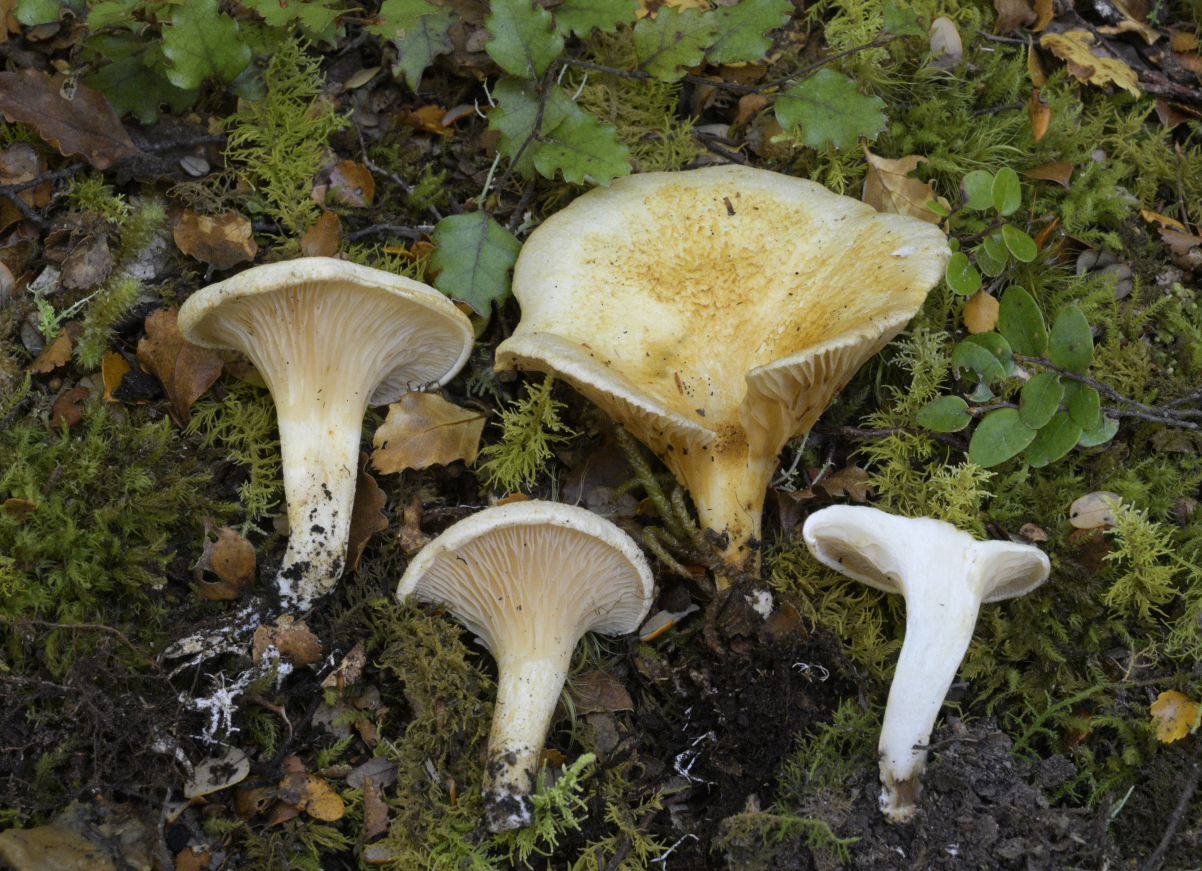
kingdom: Fungi
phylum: Basidiomycota
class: Agaricomycetes
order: Boletales
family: Serpulaceae
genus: Austropaxillus
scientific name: Austropaxillus mcnabbii
